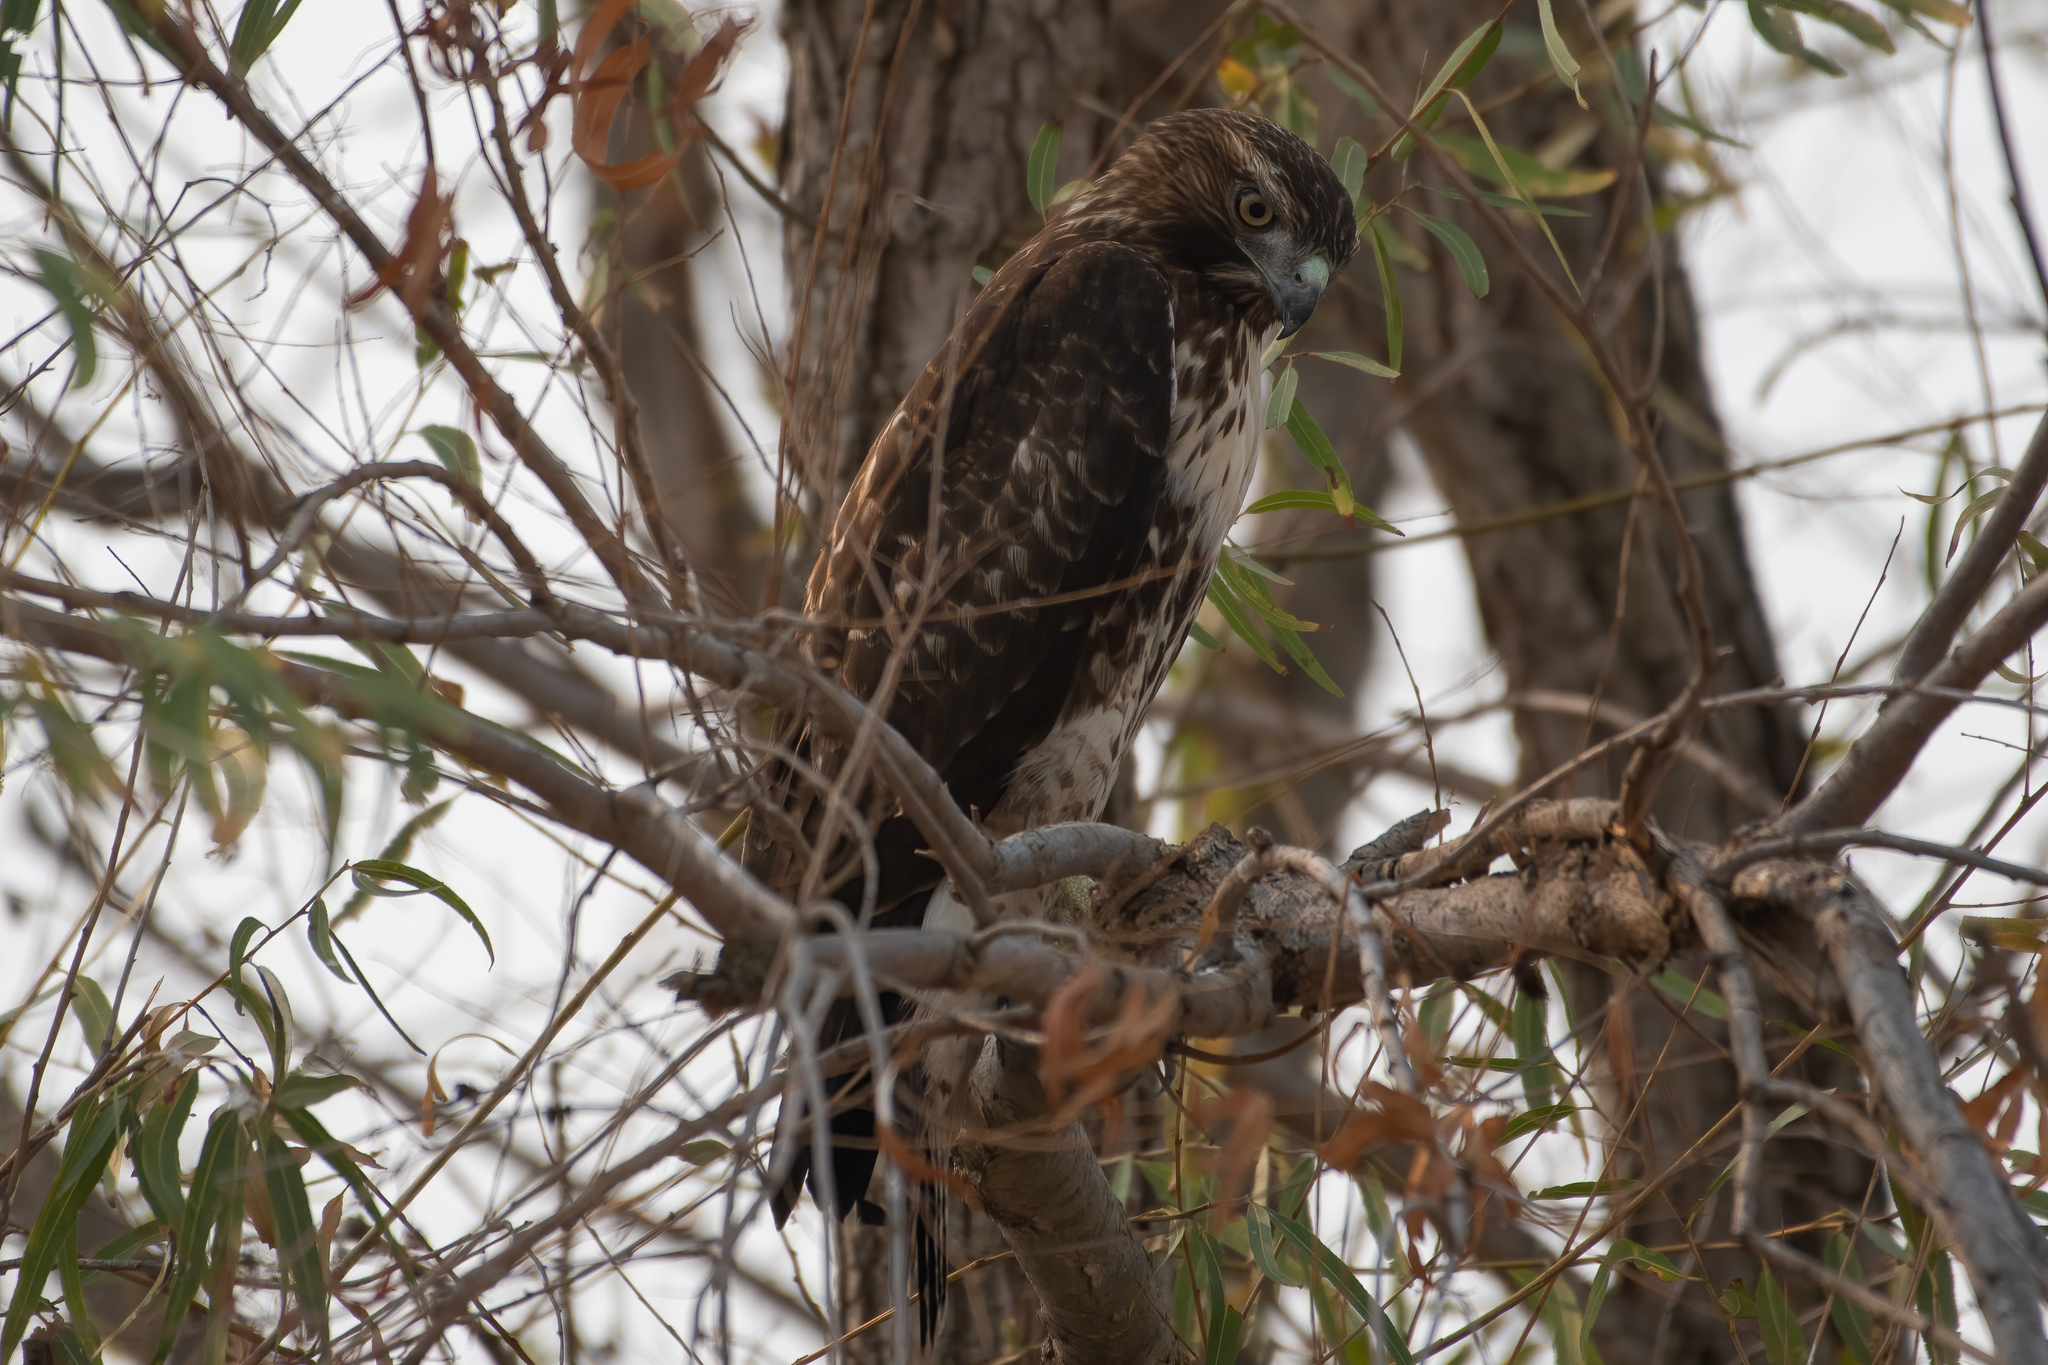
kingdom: Animalia
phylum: Chordata
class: Aves
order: Accipitriformes
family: Accipitridae
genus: Buteo
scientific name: Buteo jamaicensis
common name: Red-tailed hawk
